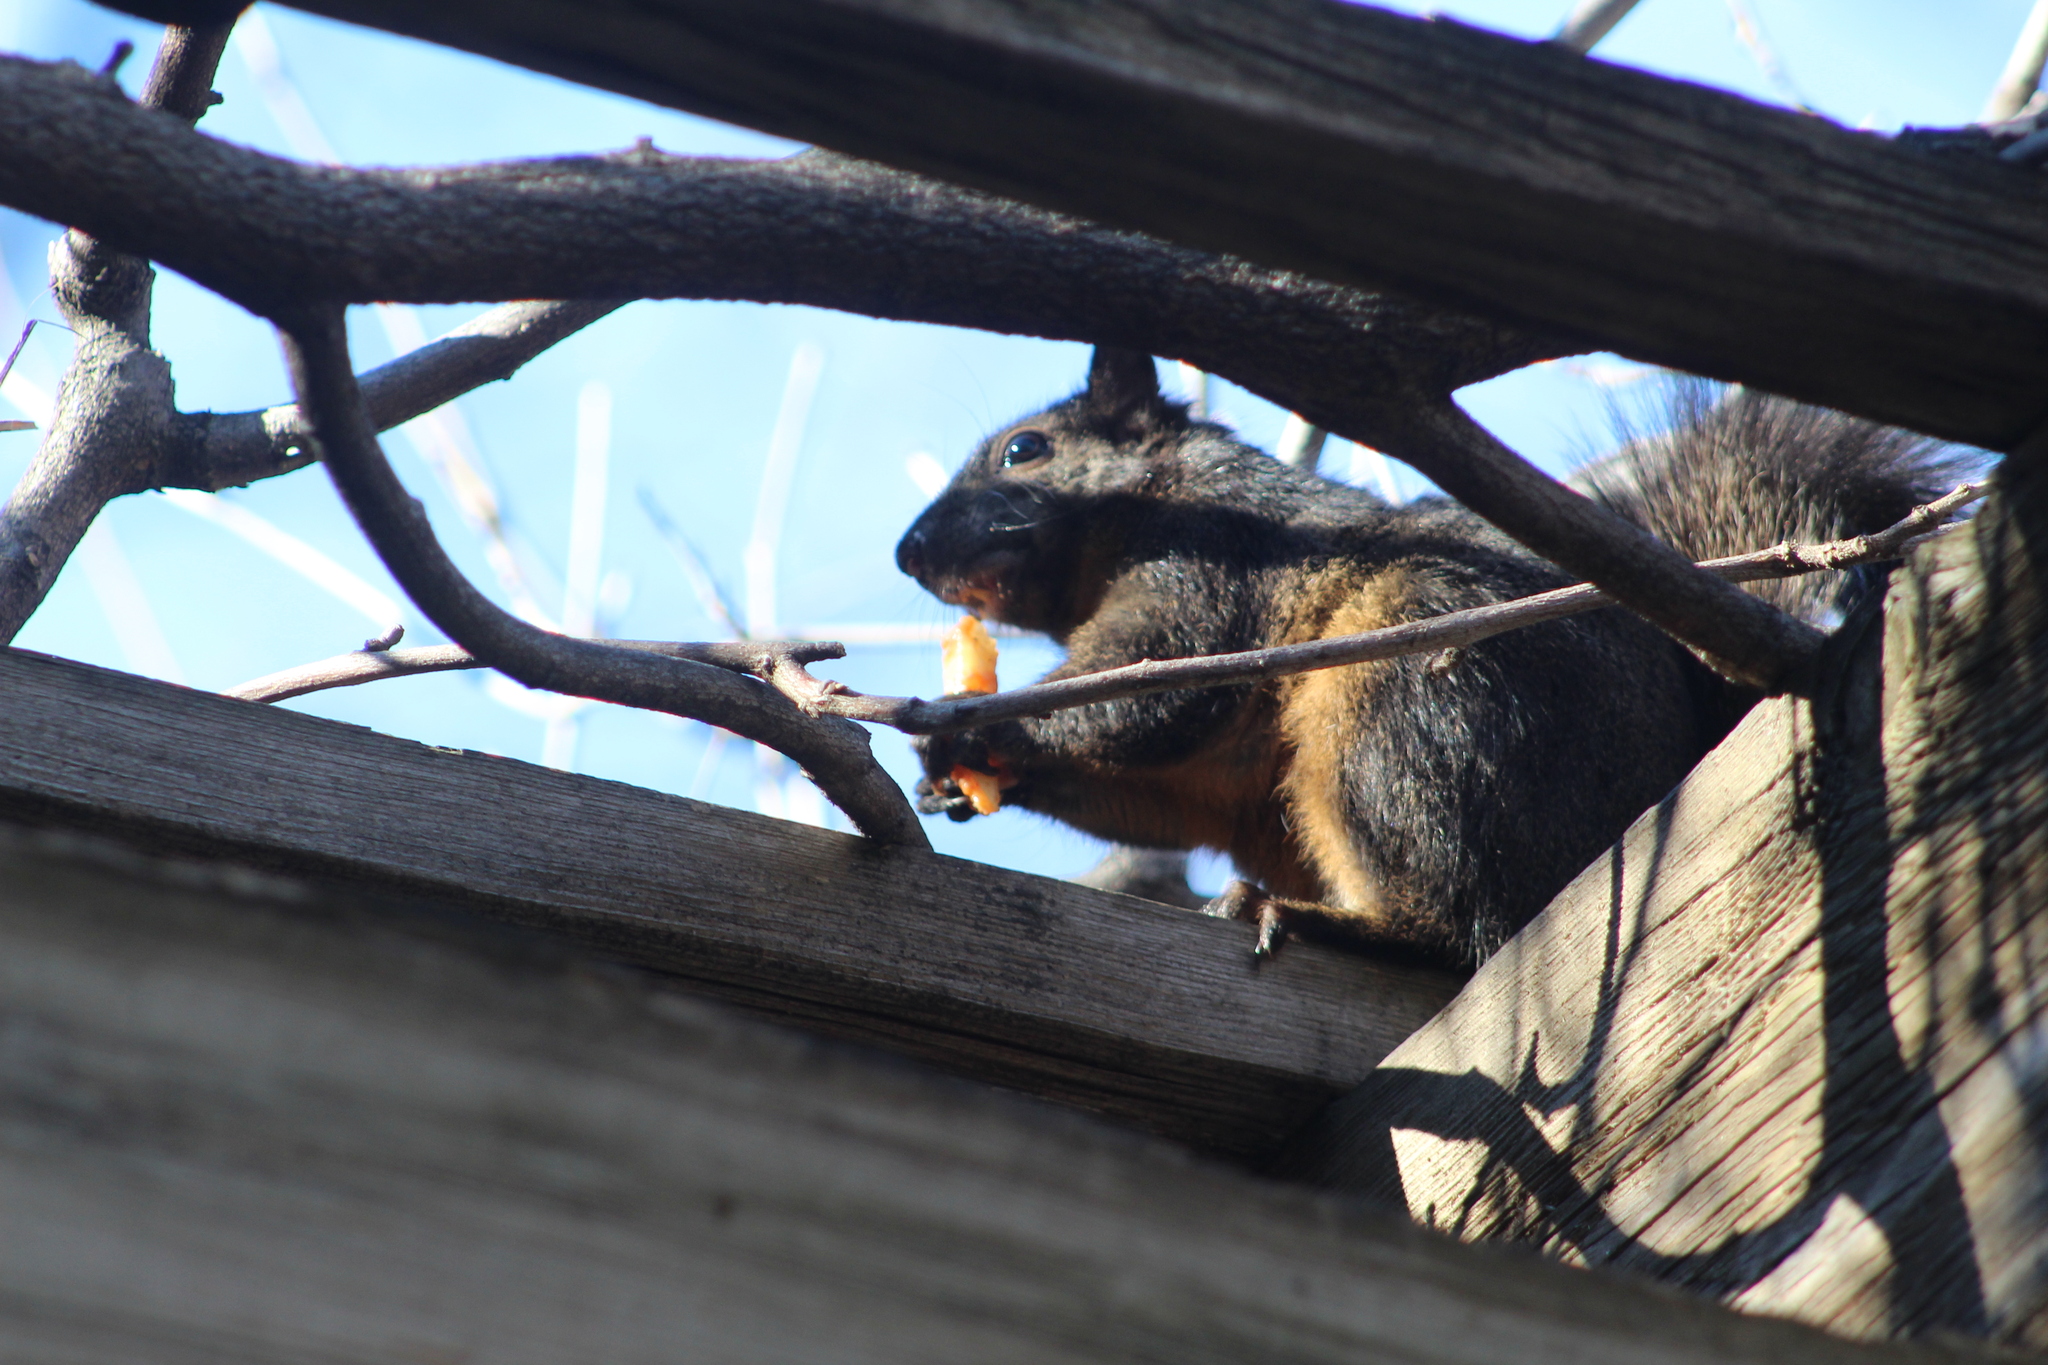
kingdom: Animalia
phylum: Chordata
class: Mammalia
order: Rodentia
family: Sciuridae
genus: Sciurus
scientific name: Sciurus carolinensis
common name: Eastern gray squirrel
